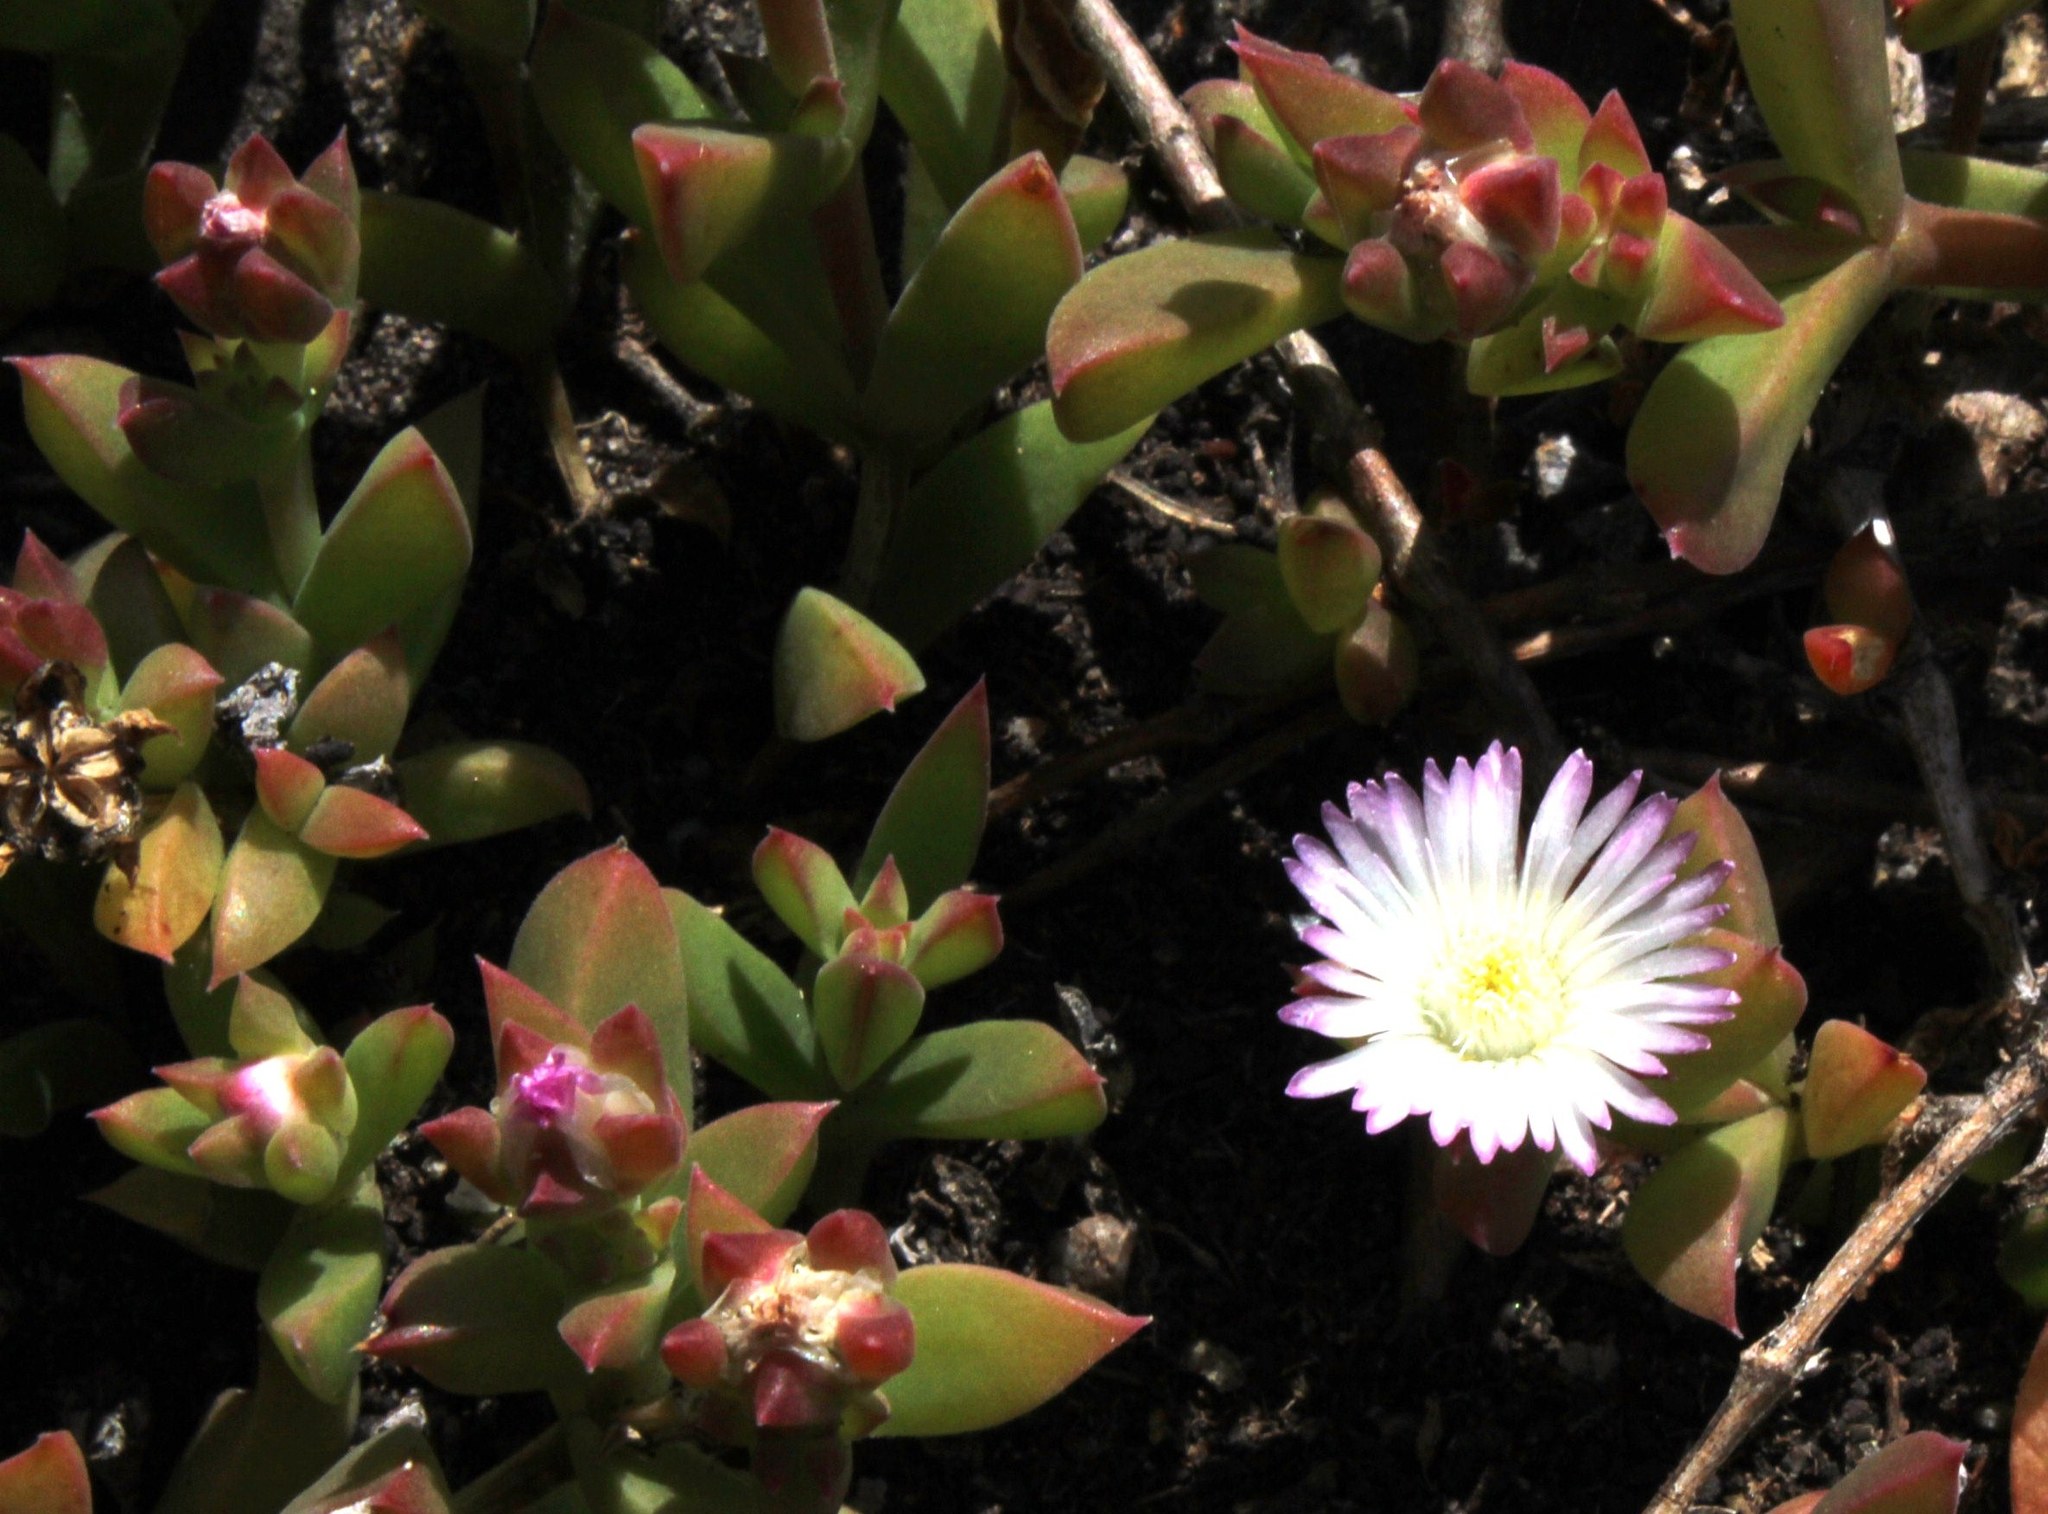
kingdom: Plantae
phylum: Tracheophyta
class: Magnoliopsida
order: Caryophyllales
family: Aizoaceae
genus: Delosperma
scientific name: Delosperma patersoniae
